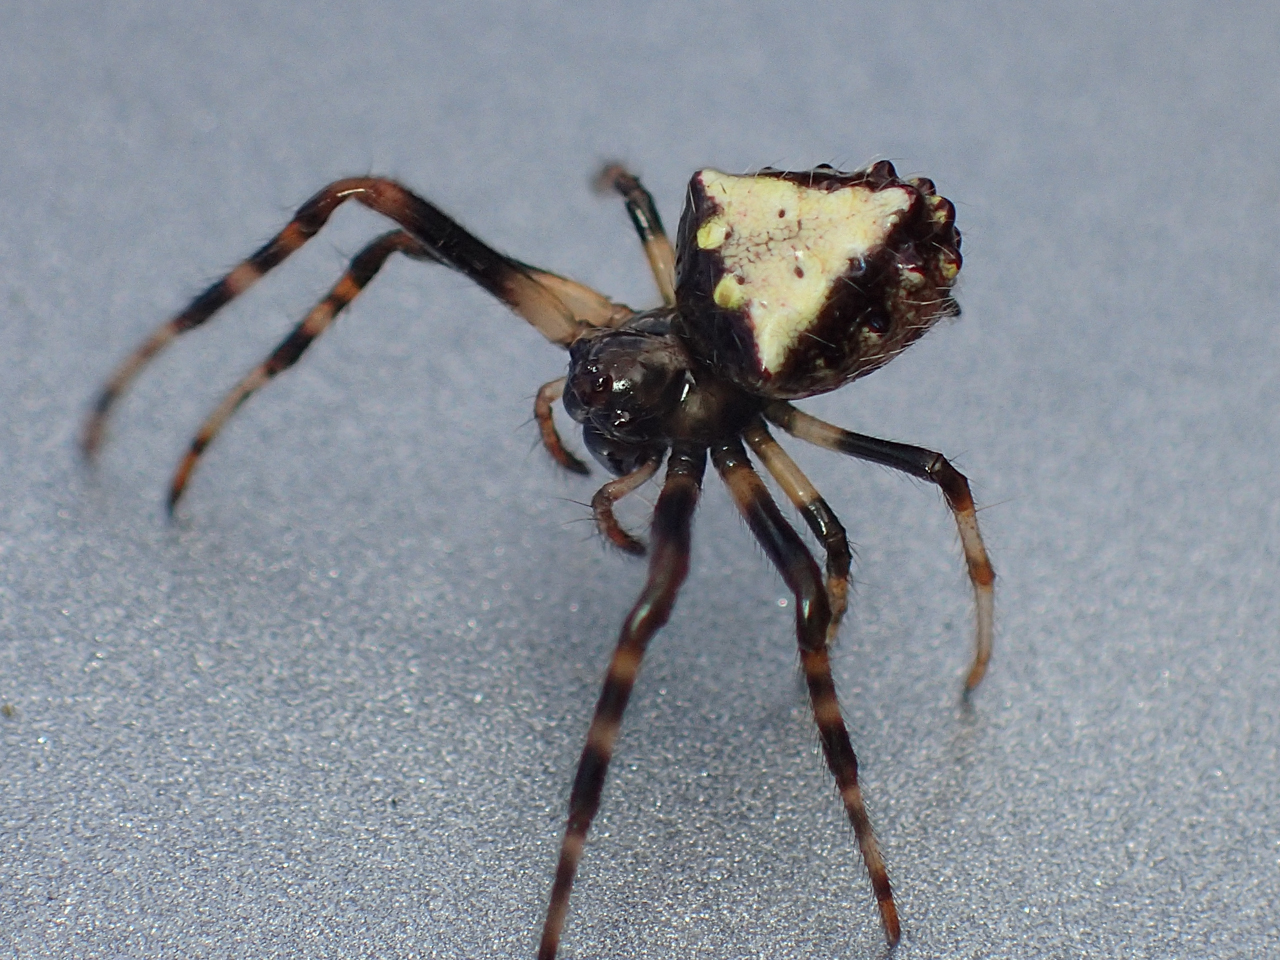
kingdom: Animalia
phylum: Arthropoda
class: Arachnida
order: Araneae
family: Araneidae
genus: Verrucosa
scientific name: Verrucosa arenata
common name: Orb weavers
